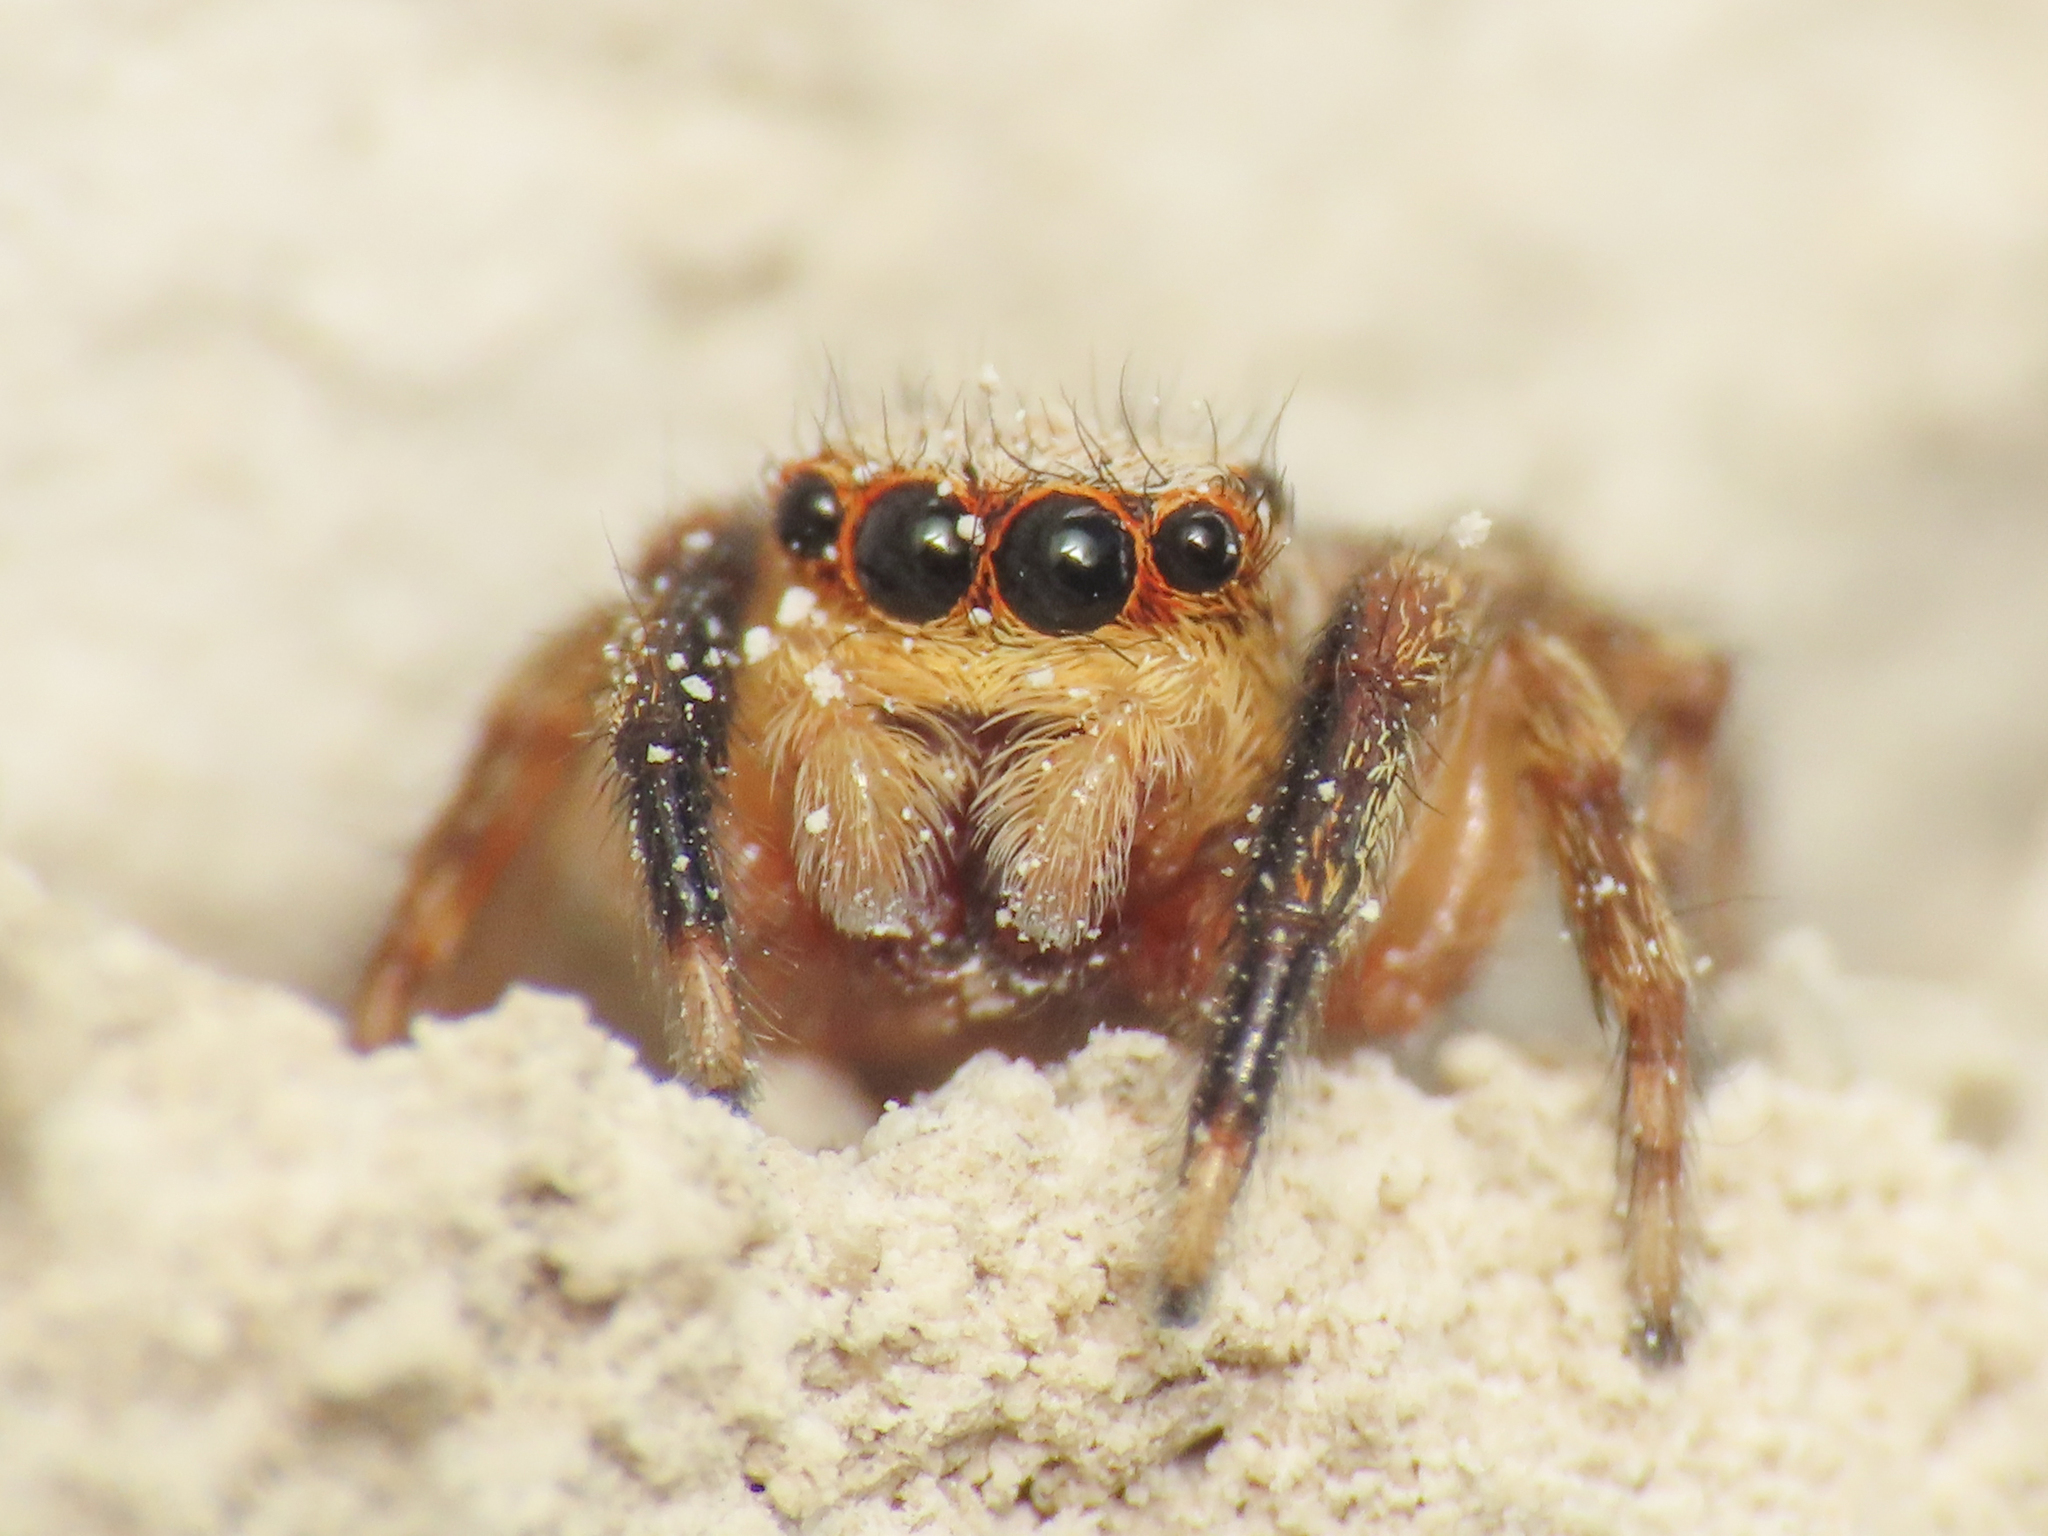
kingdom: Animalia
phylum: Arthropoda
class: Arachnida
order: Araneae
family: Salticidae
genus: Pseudeuophrys
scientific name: Pseudeuophrys vafra
